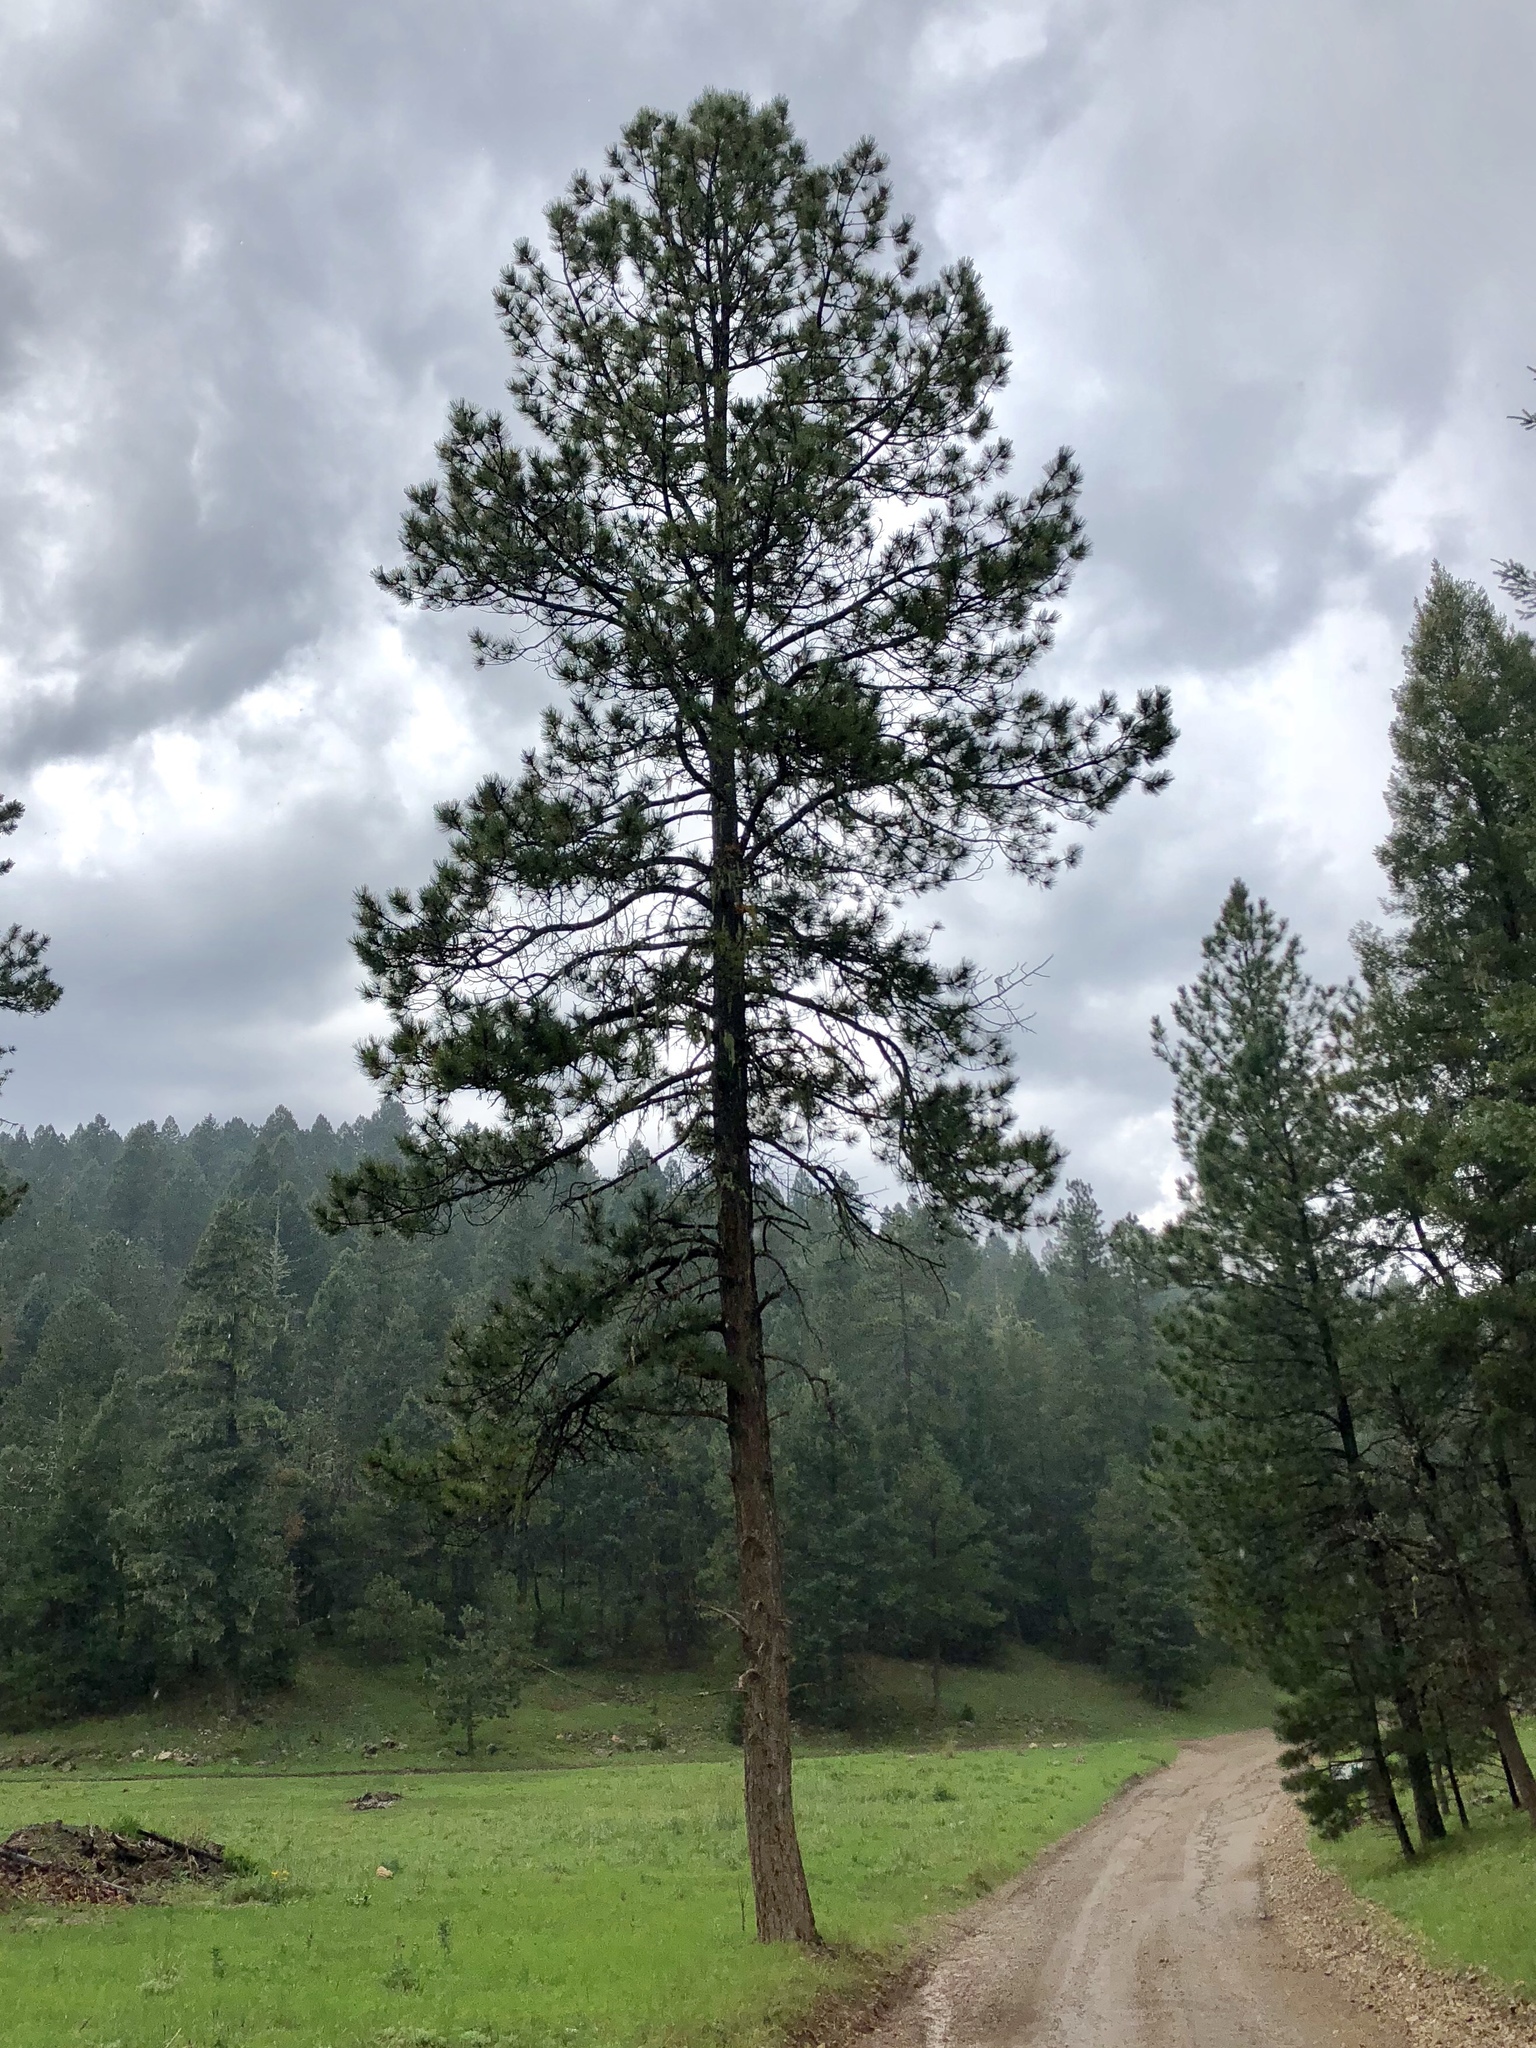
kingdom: Plantae
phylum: Tracheophyta
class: Pinopsida
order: Pinales
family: Pinaceae
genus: Pinus
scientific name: Pinus ponderosa
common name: Western yellow-pine
